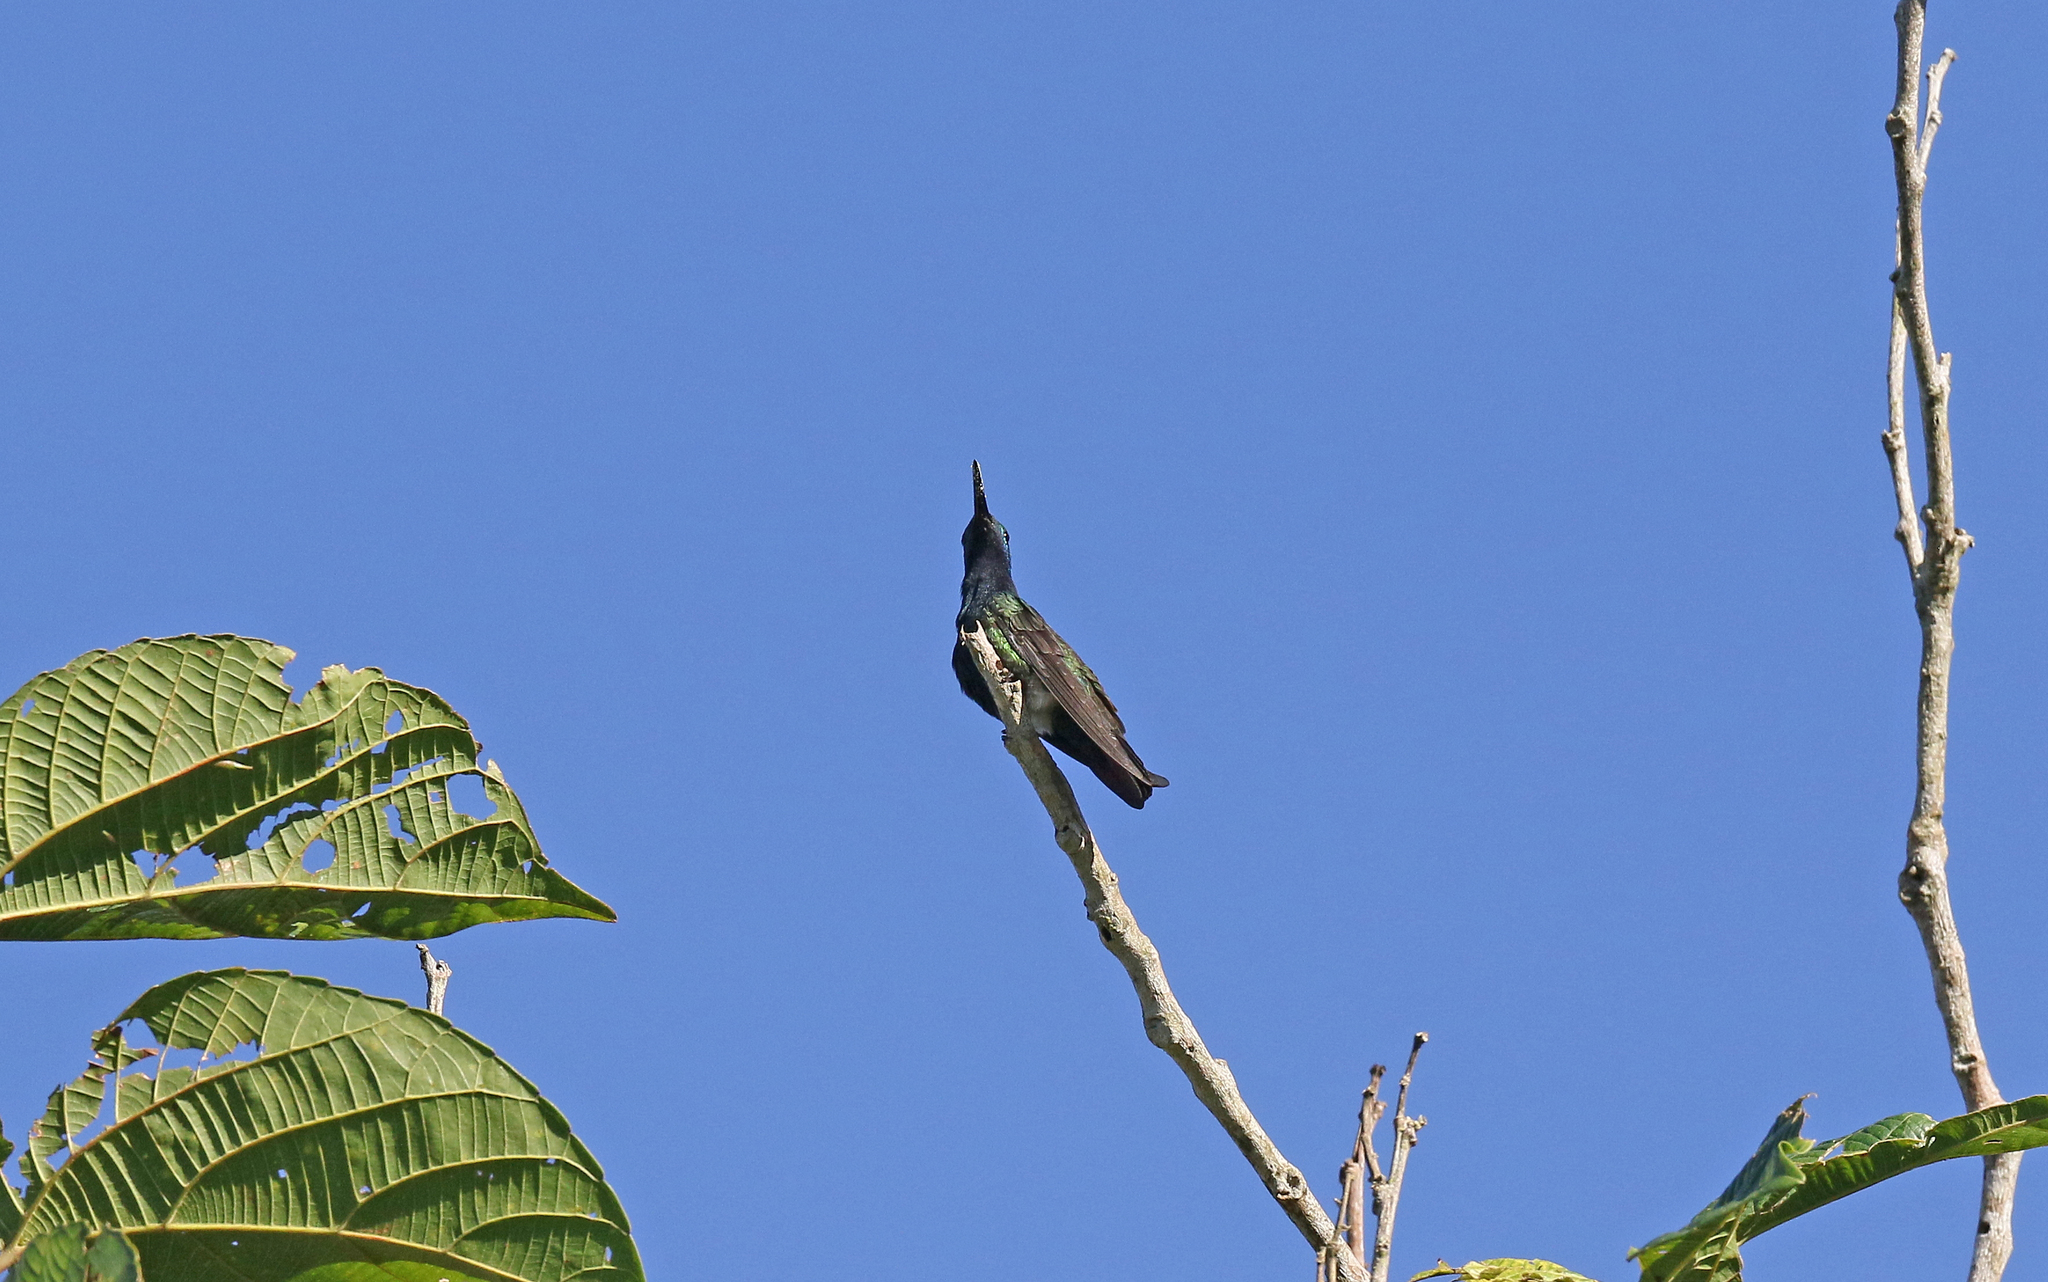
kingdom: Animalia
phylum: Chordata
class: Aves
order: Apodiformes
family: Trochilidae
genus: Anthracothorax
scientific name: Anthracothorax nigricollis
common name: Black-throated mango
